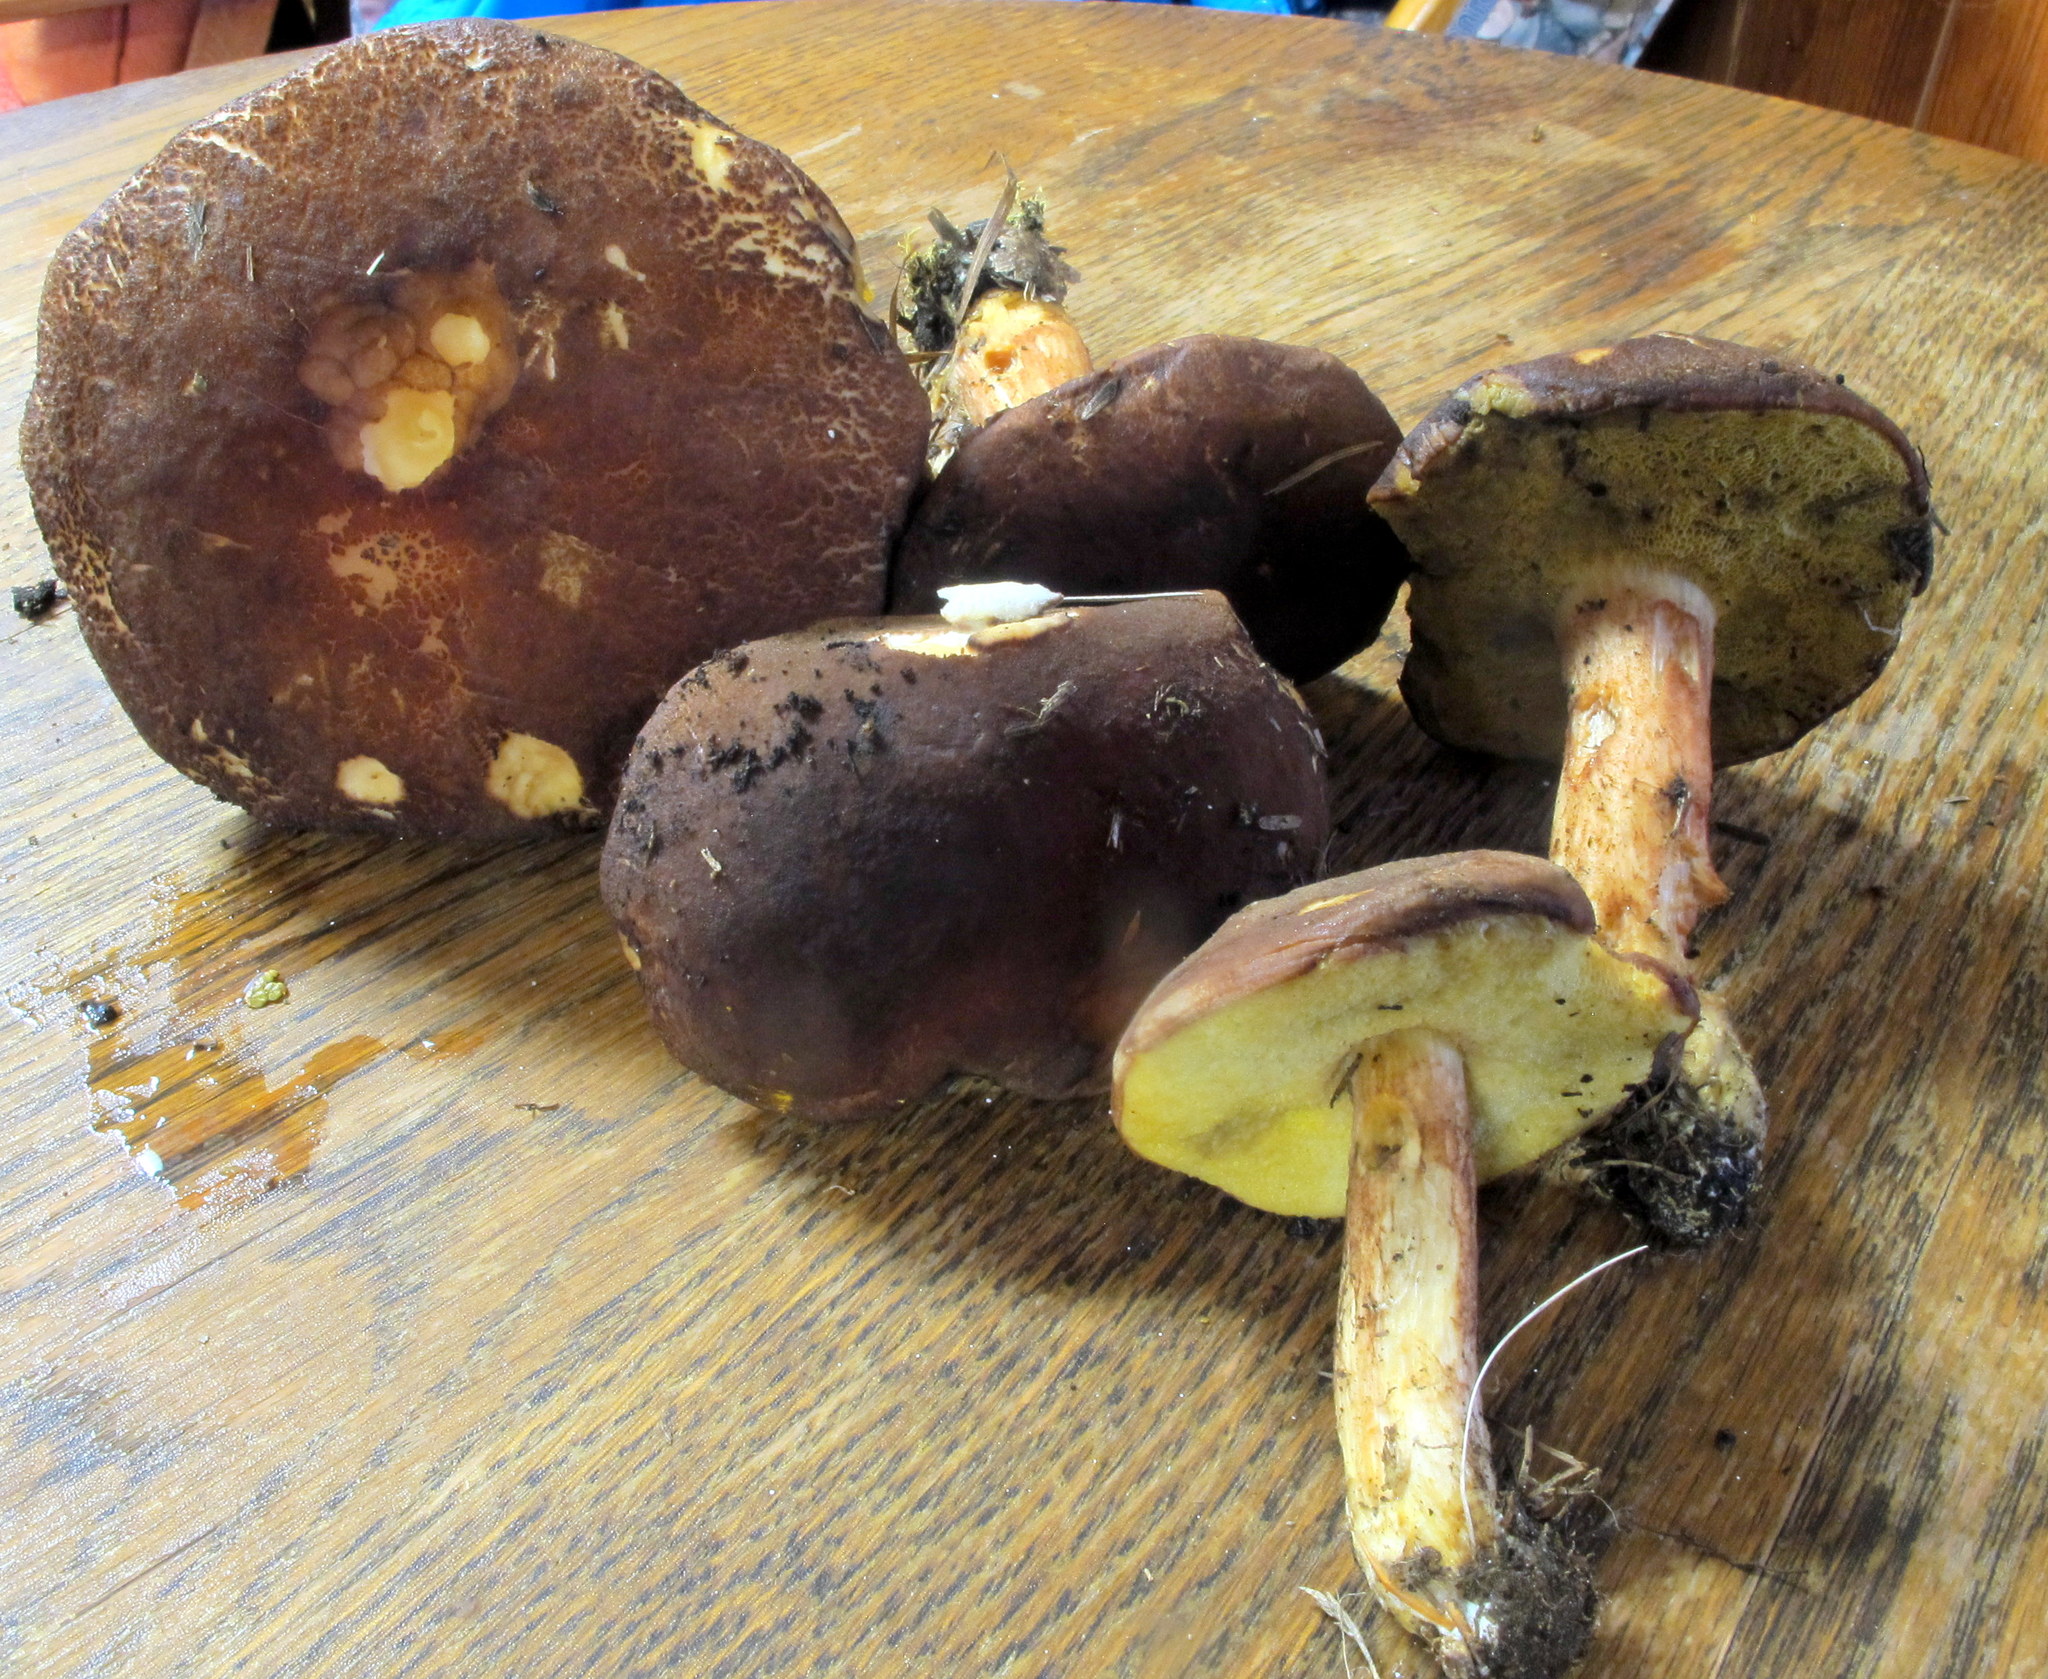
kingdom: Fungi
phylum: Basidiomycota
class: Agaricomycetes
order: Boletales
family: Boletaceae
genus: Hemileccinum
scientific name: Hemileccinum rubropunctum
